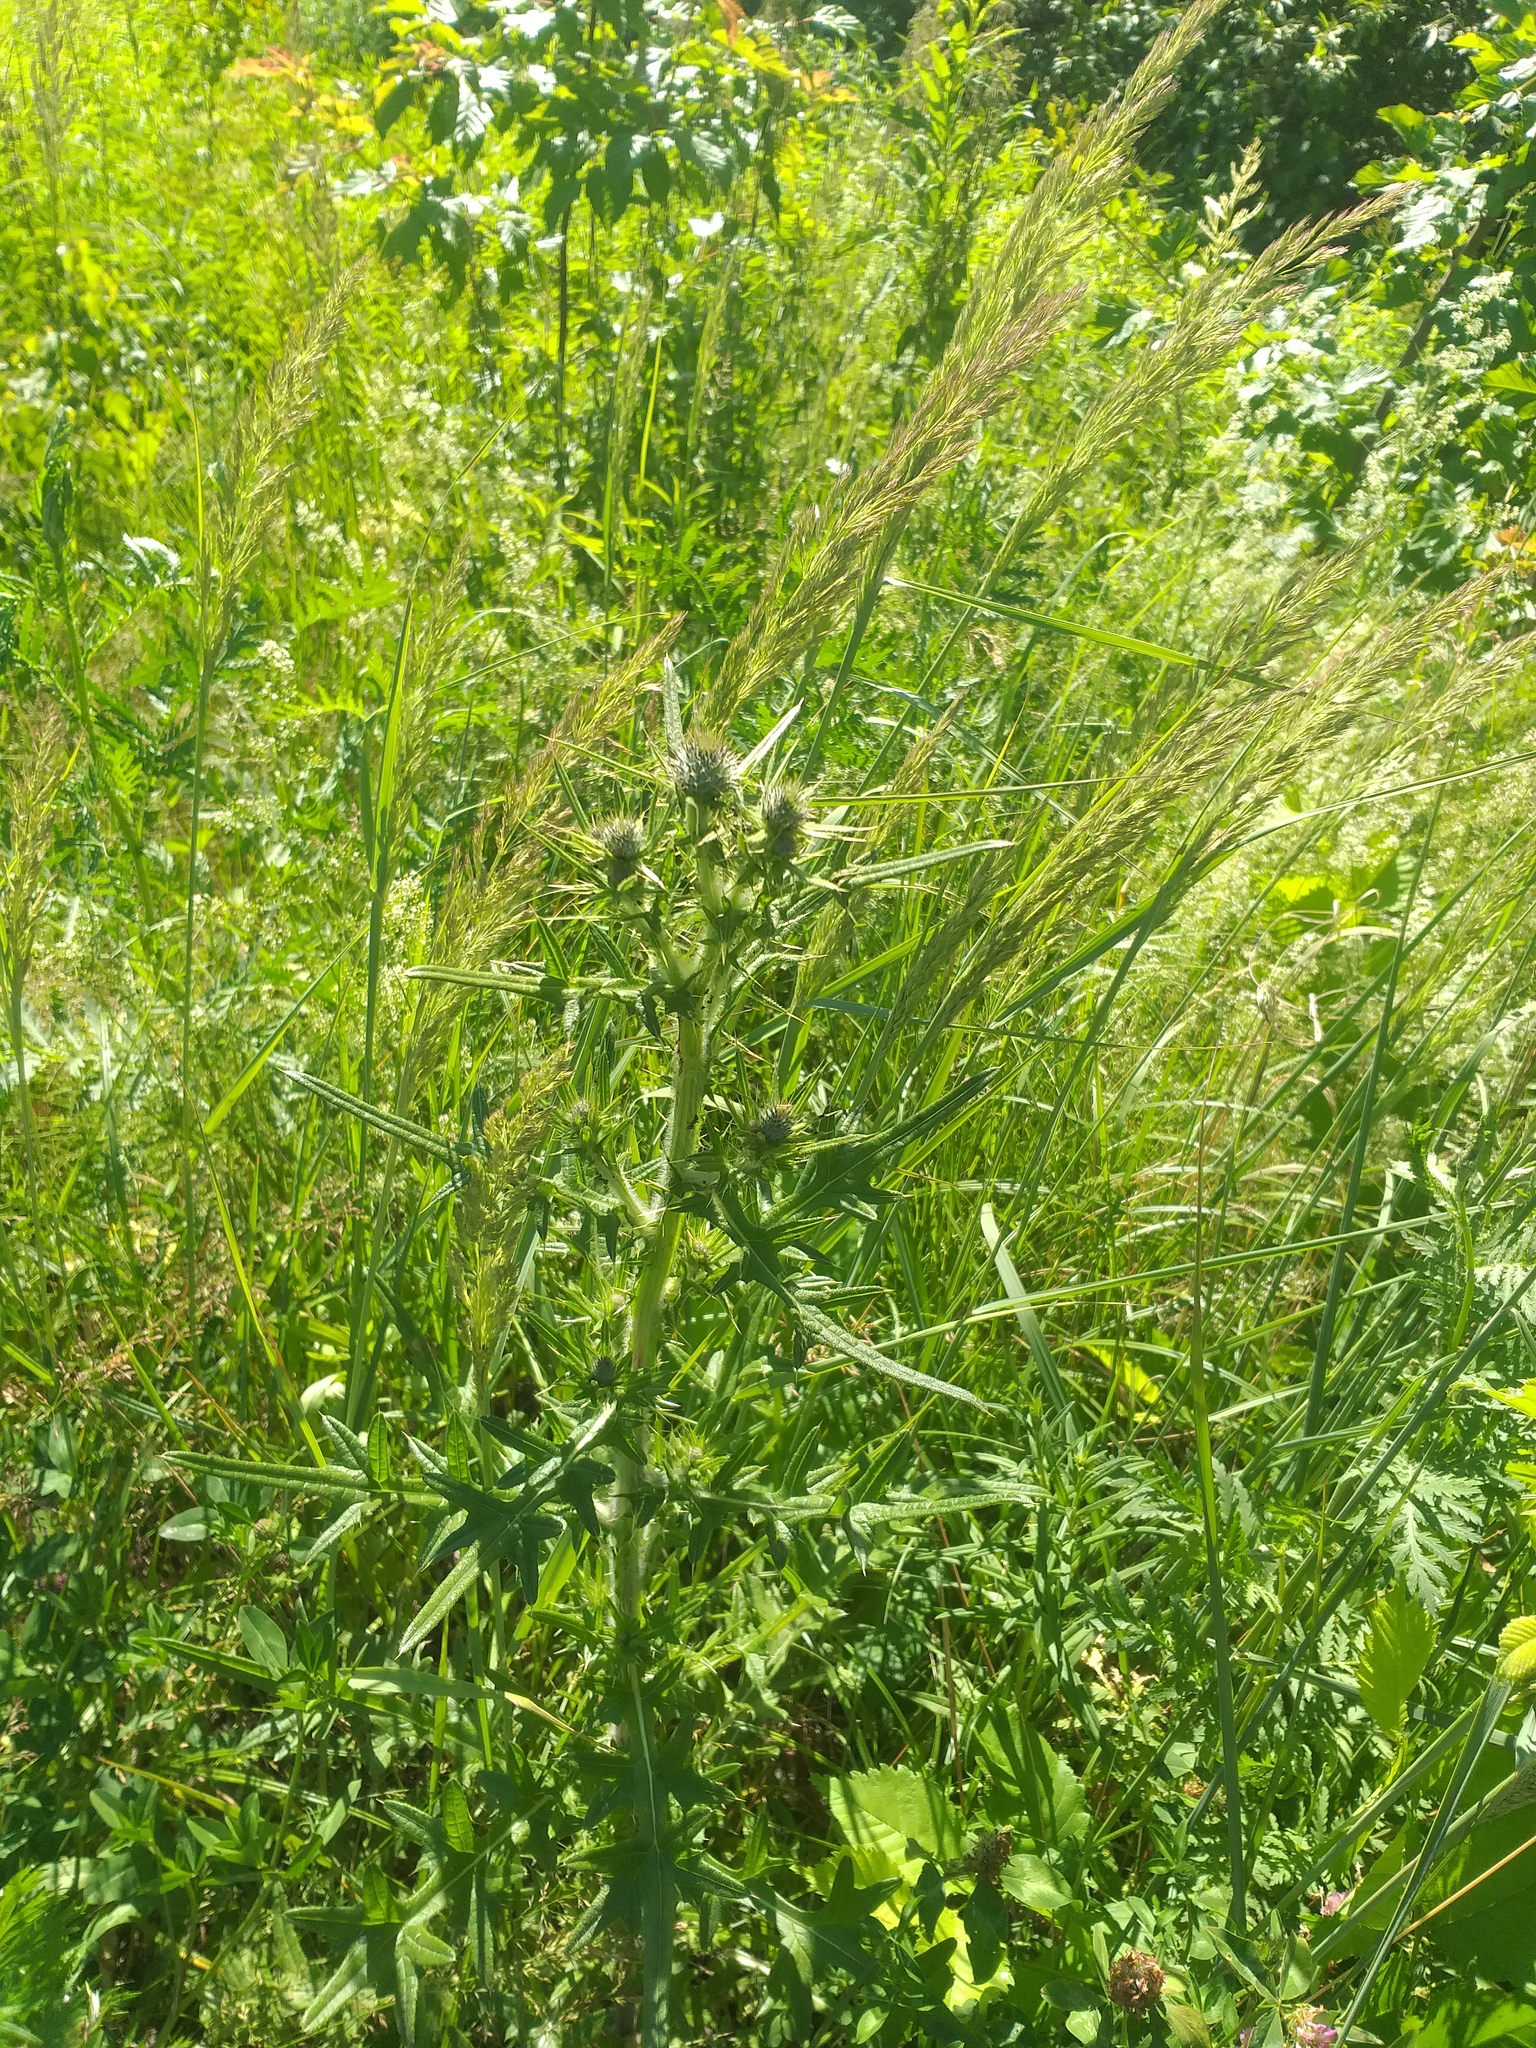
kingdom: Plantae
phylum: Tracheophyta
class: Magnoliopsida
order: Asterales
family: Asteraceae
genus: Cirsium
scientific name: Cirsium vulgare
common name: Bull thistle
